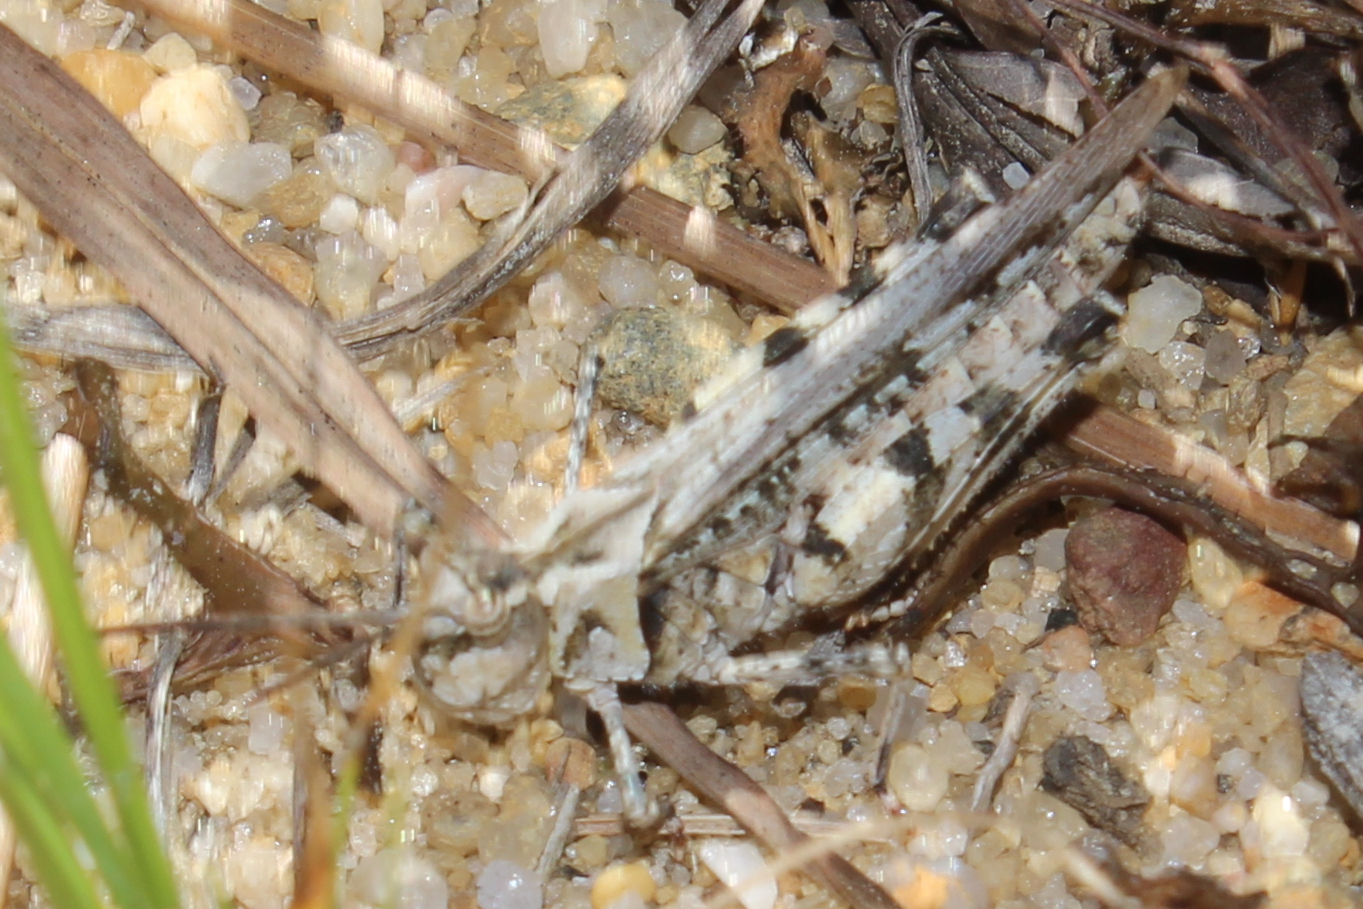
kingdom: Animalia
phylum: Arthropoda
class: Insecta
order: Orthoptera
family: Acrididae
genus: Psinidia
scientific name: Psinidia fenestralis
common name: Long-horned locust
